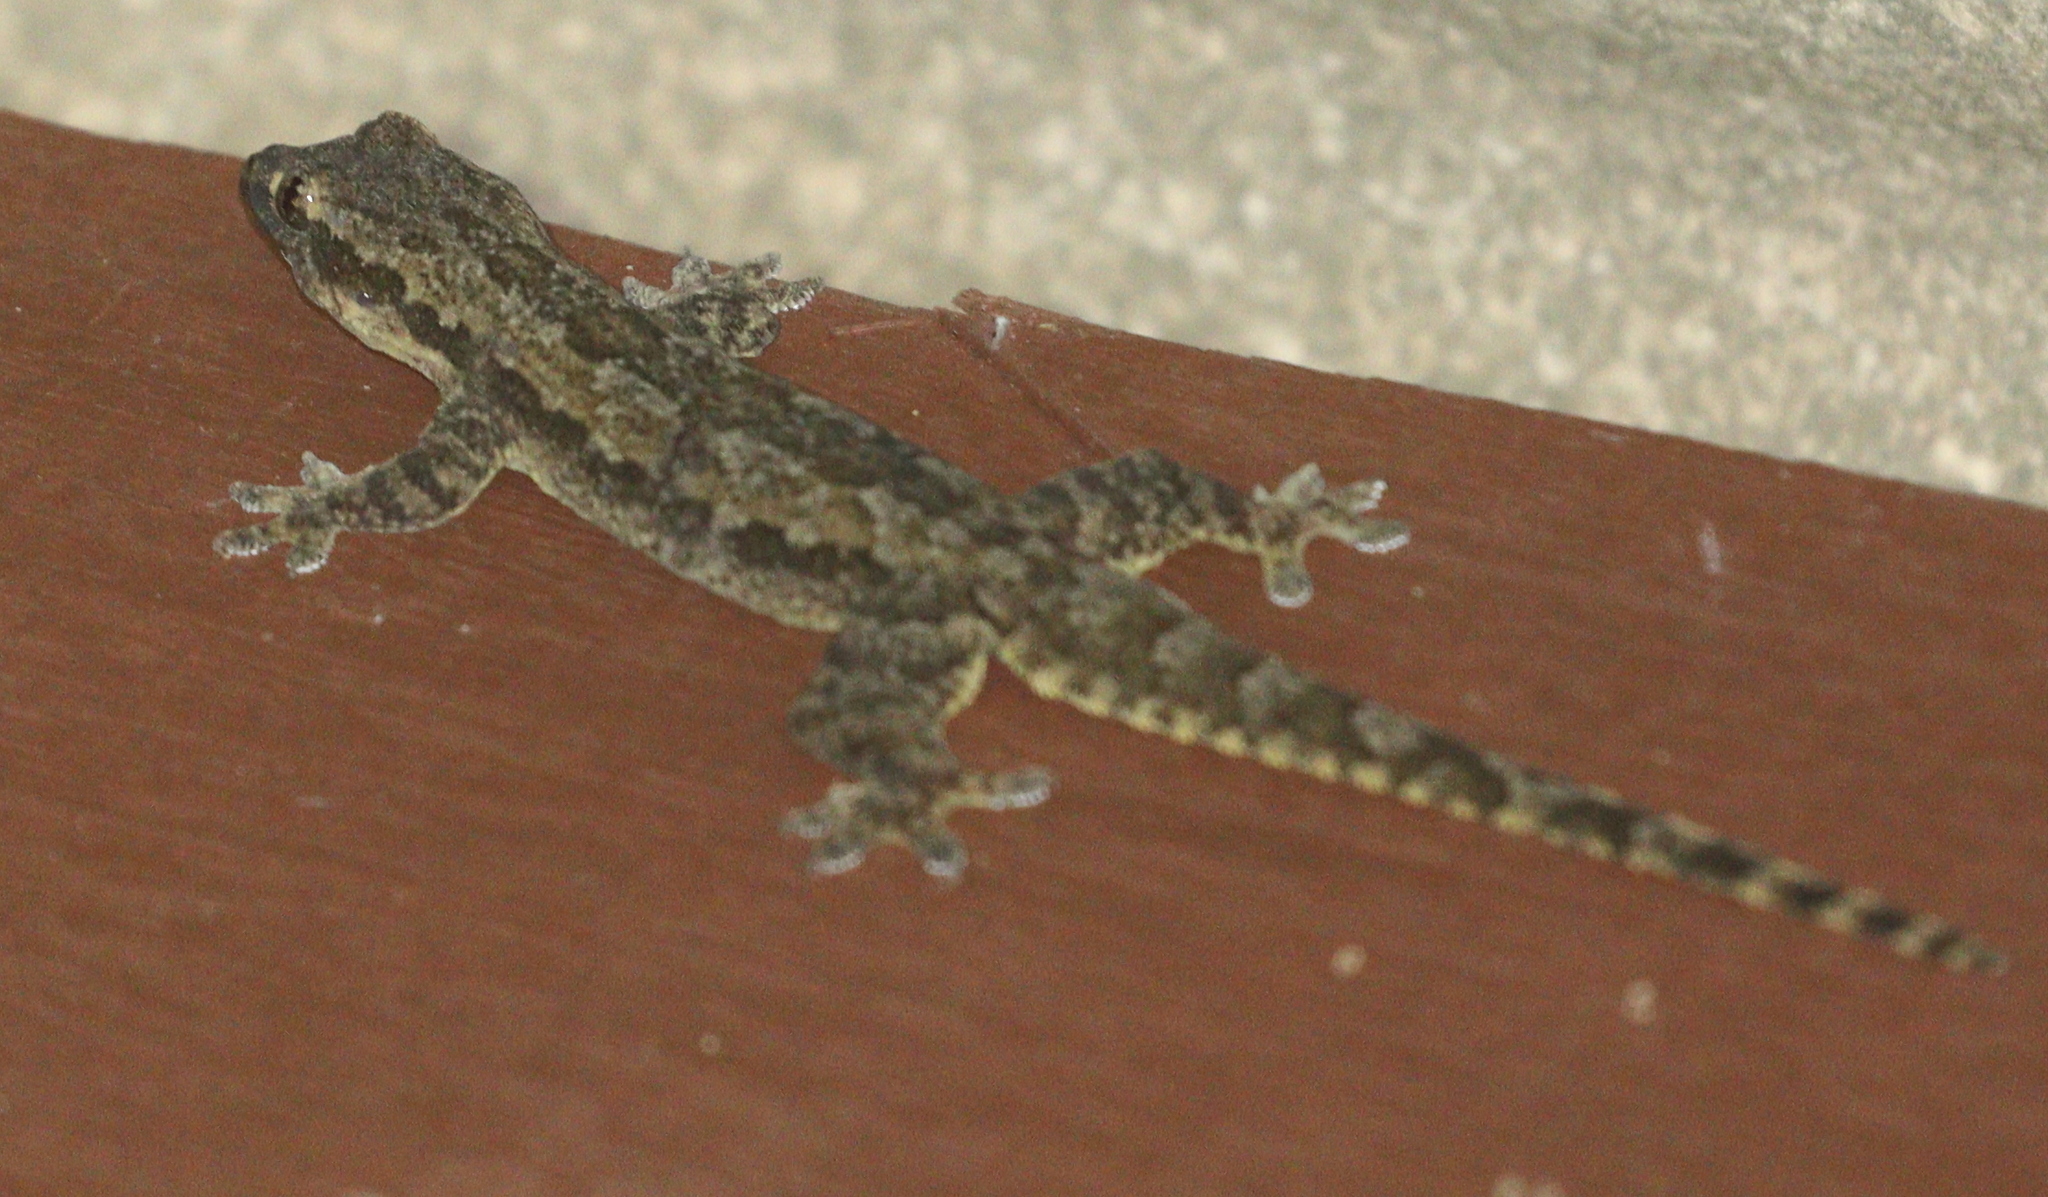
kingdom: Animalia
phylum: Chordata
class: Squamata
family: Gekkonidae
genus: Hemidactylus
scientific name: Hemidactylus platyurus
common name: Flat-tailed house gecko
